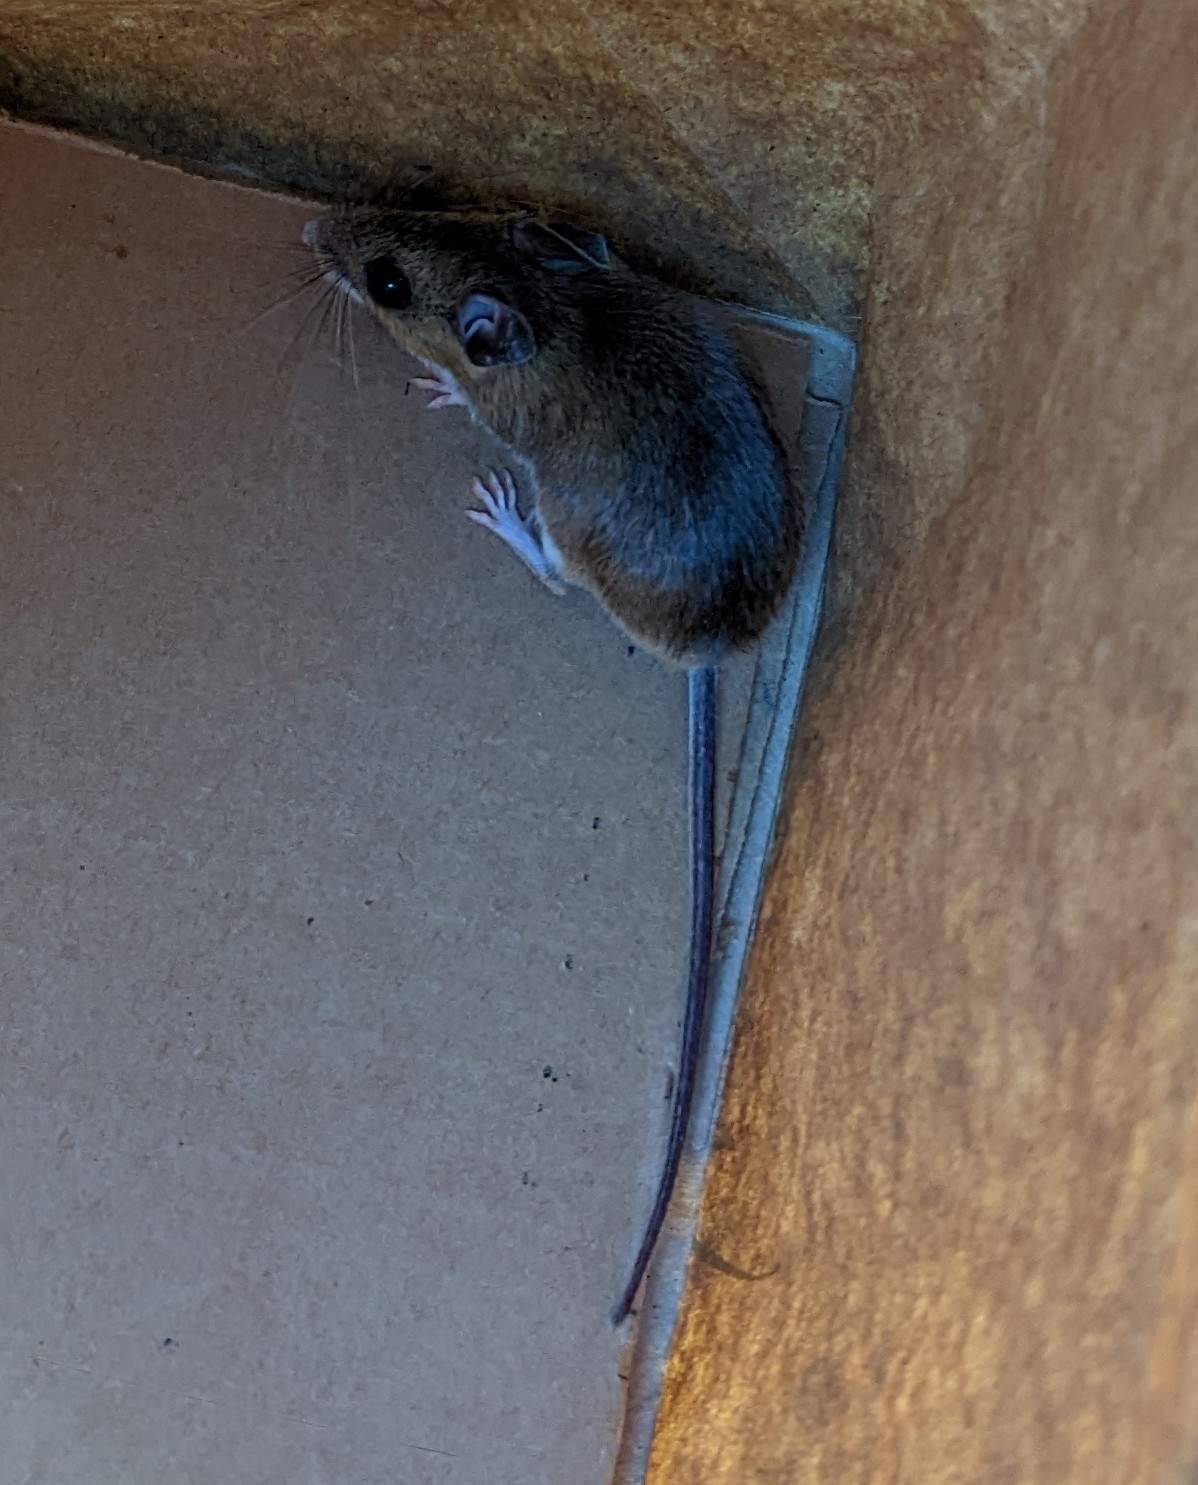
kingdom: Animalia
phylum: Chordata
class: Mammalia
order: Rodentia
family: Cricetidae
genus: Peromyscus
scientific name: Peromyscus leucopus
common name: White-footed deermouse
